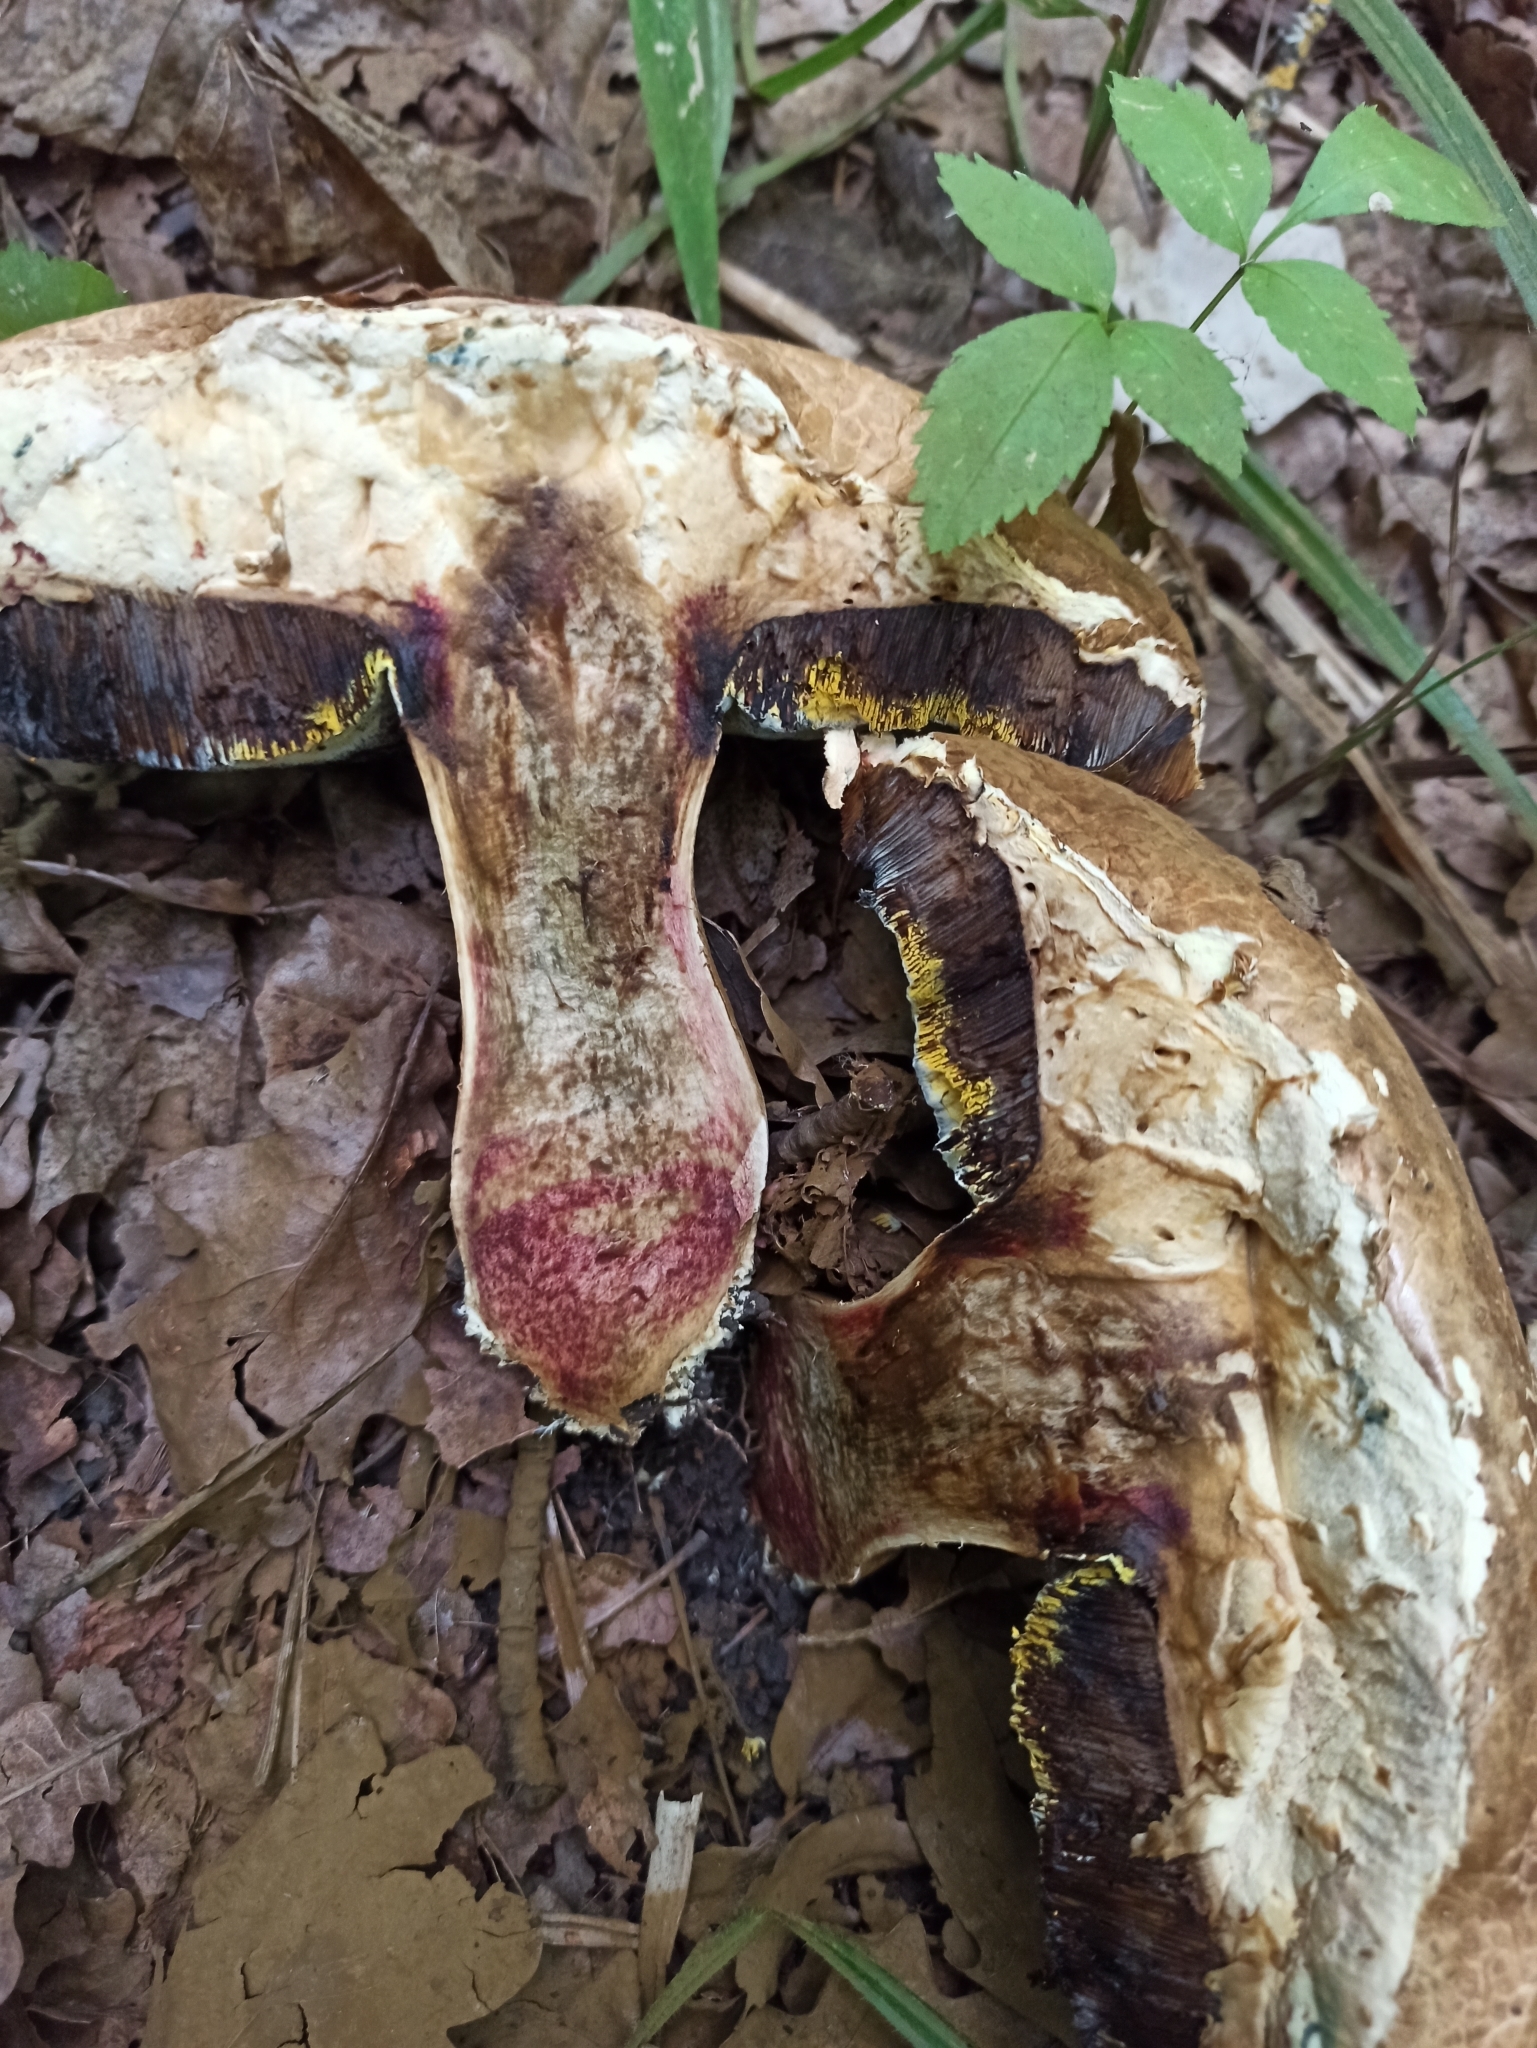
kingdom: Fungi
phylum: Basidiomycota
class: Agaricomycetes
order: Boletales
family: Boletaceae
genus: Suillellus
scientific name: Suillellus luridus
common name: Lurid bolete
